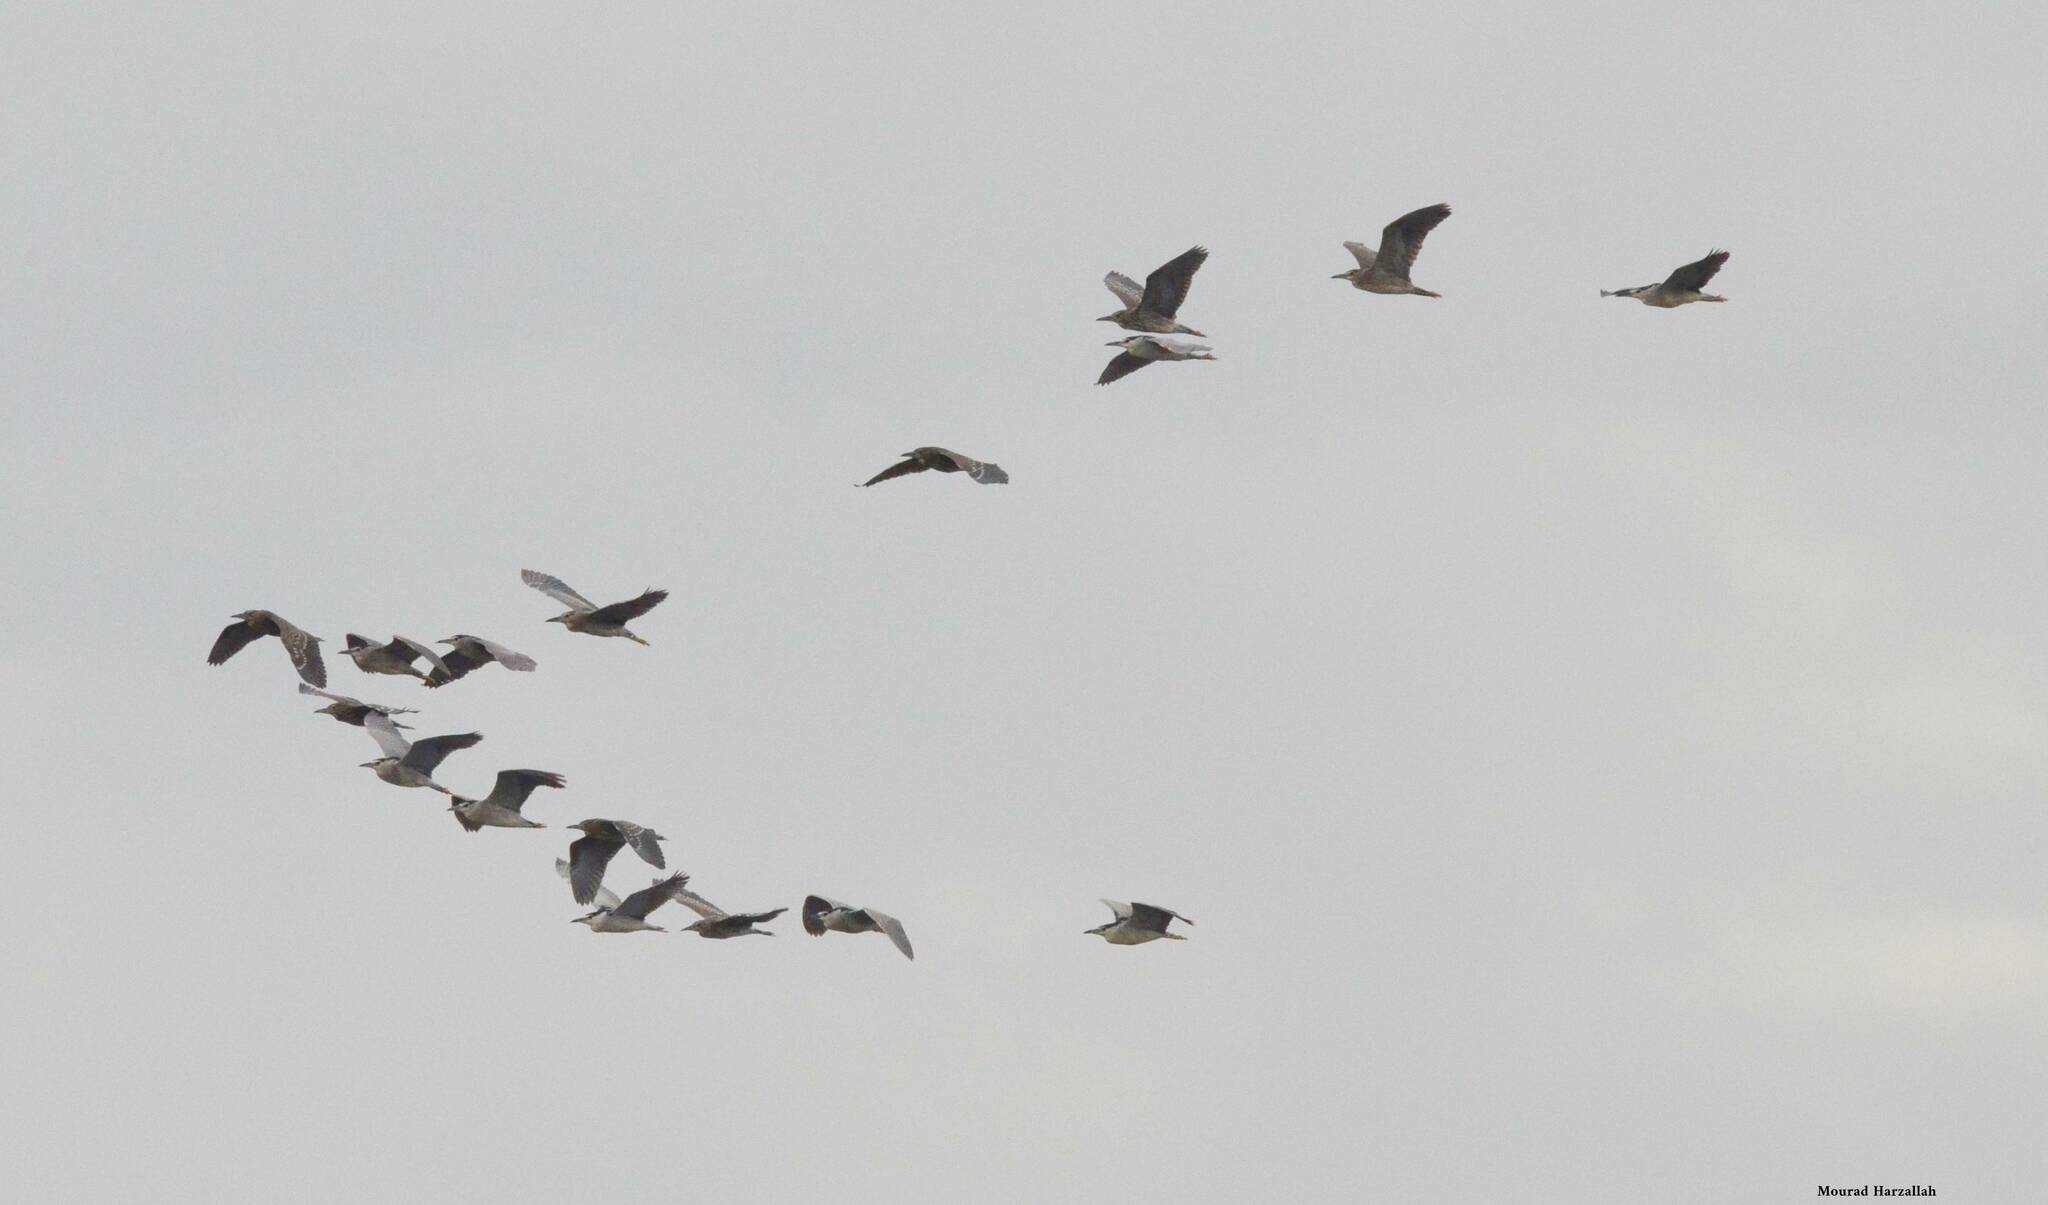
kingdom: Animalia
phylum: Chordata
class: Aves
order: Pelecaniformes
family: Ardeidae
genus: Nycticorax
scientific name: Nycticorax nycticorax
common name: Black-crowned night heron
